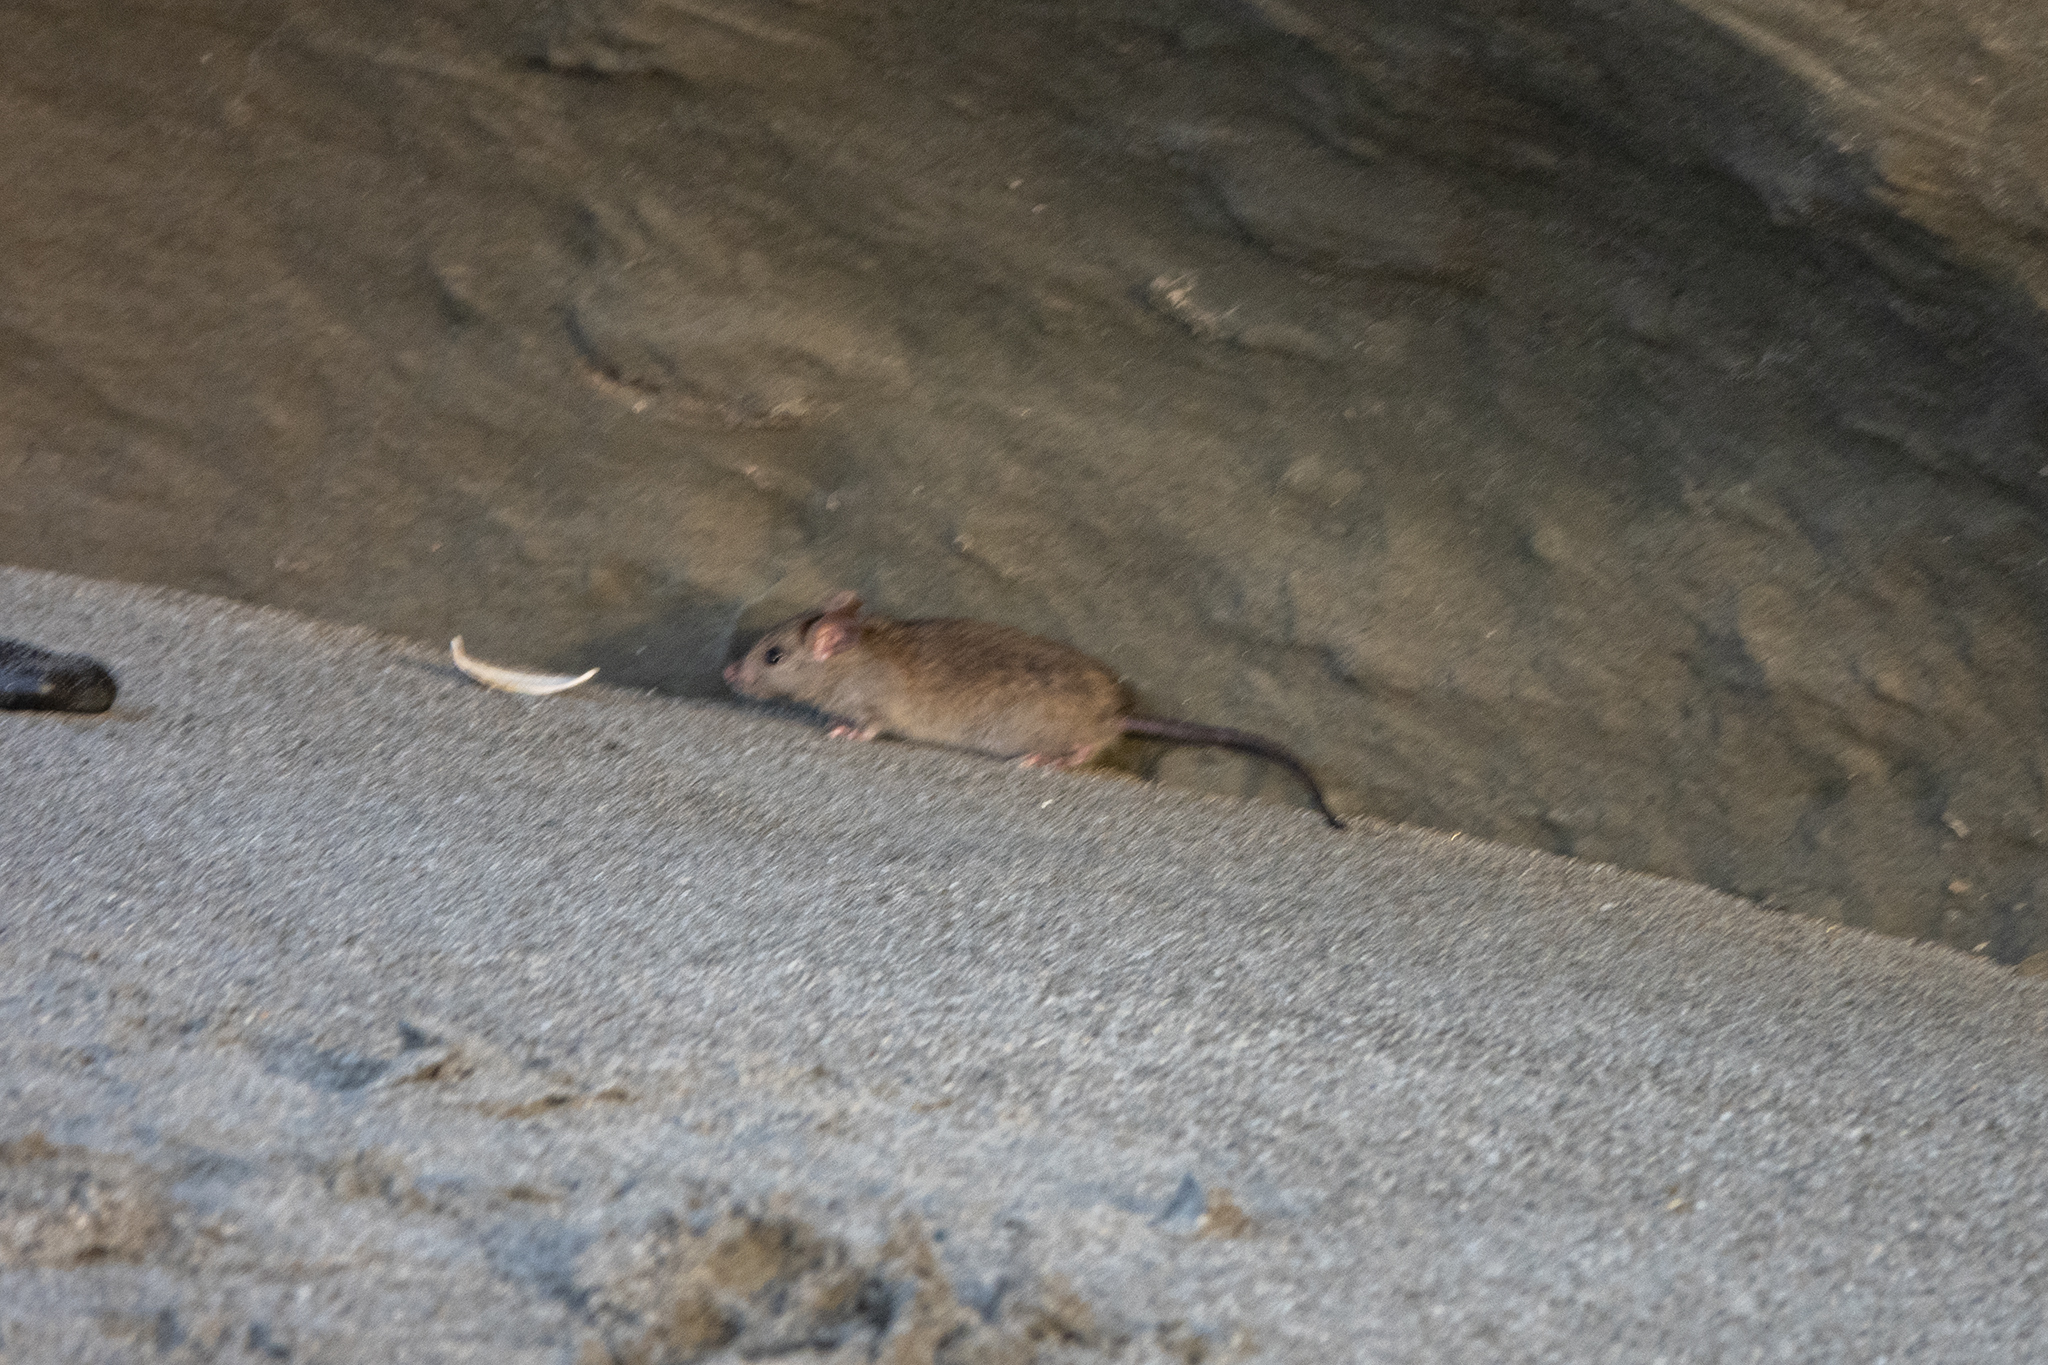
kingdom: Animalia
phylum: Chordata
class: Mammalia
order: Rodentia
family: Muridae
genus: Rattus
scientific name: Rattus norvegicus
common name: Brown rat
